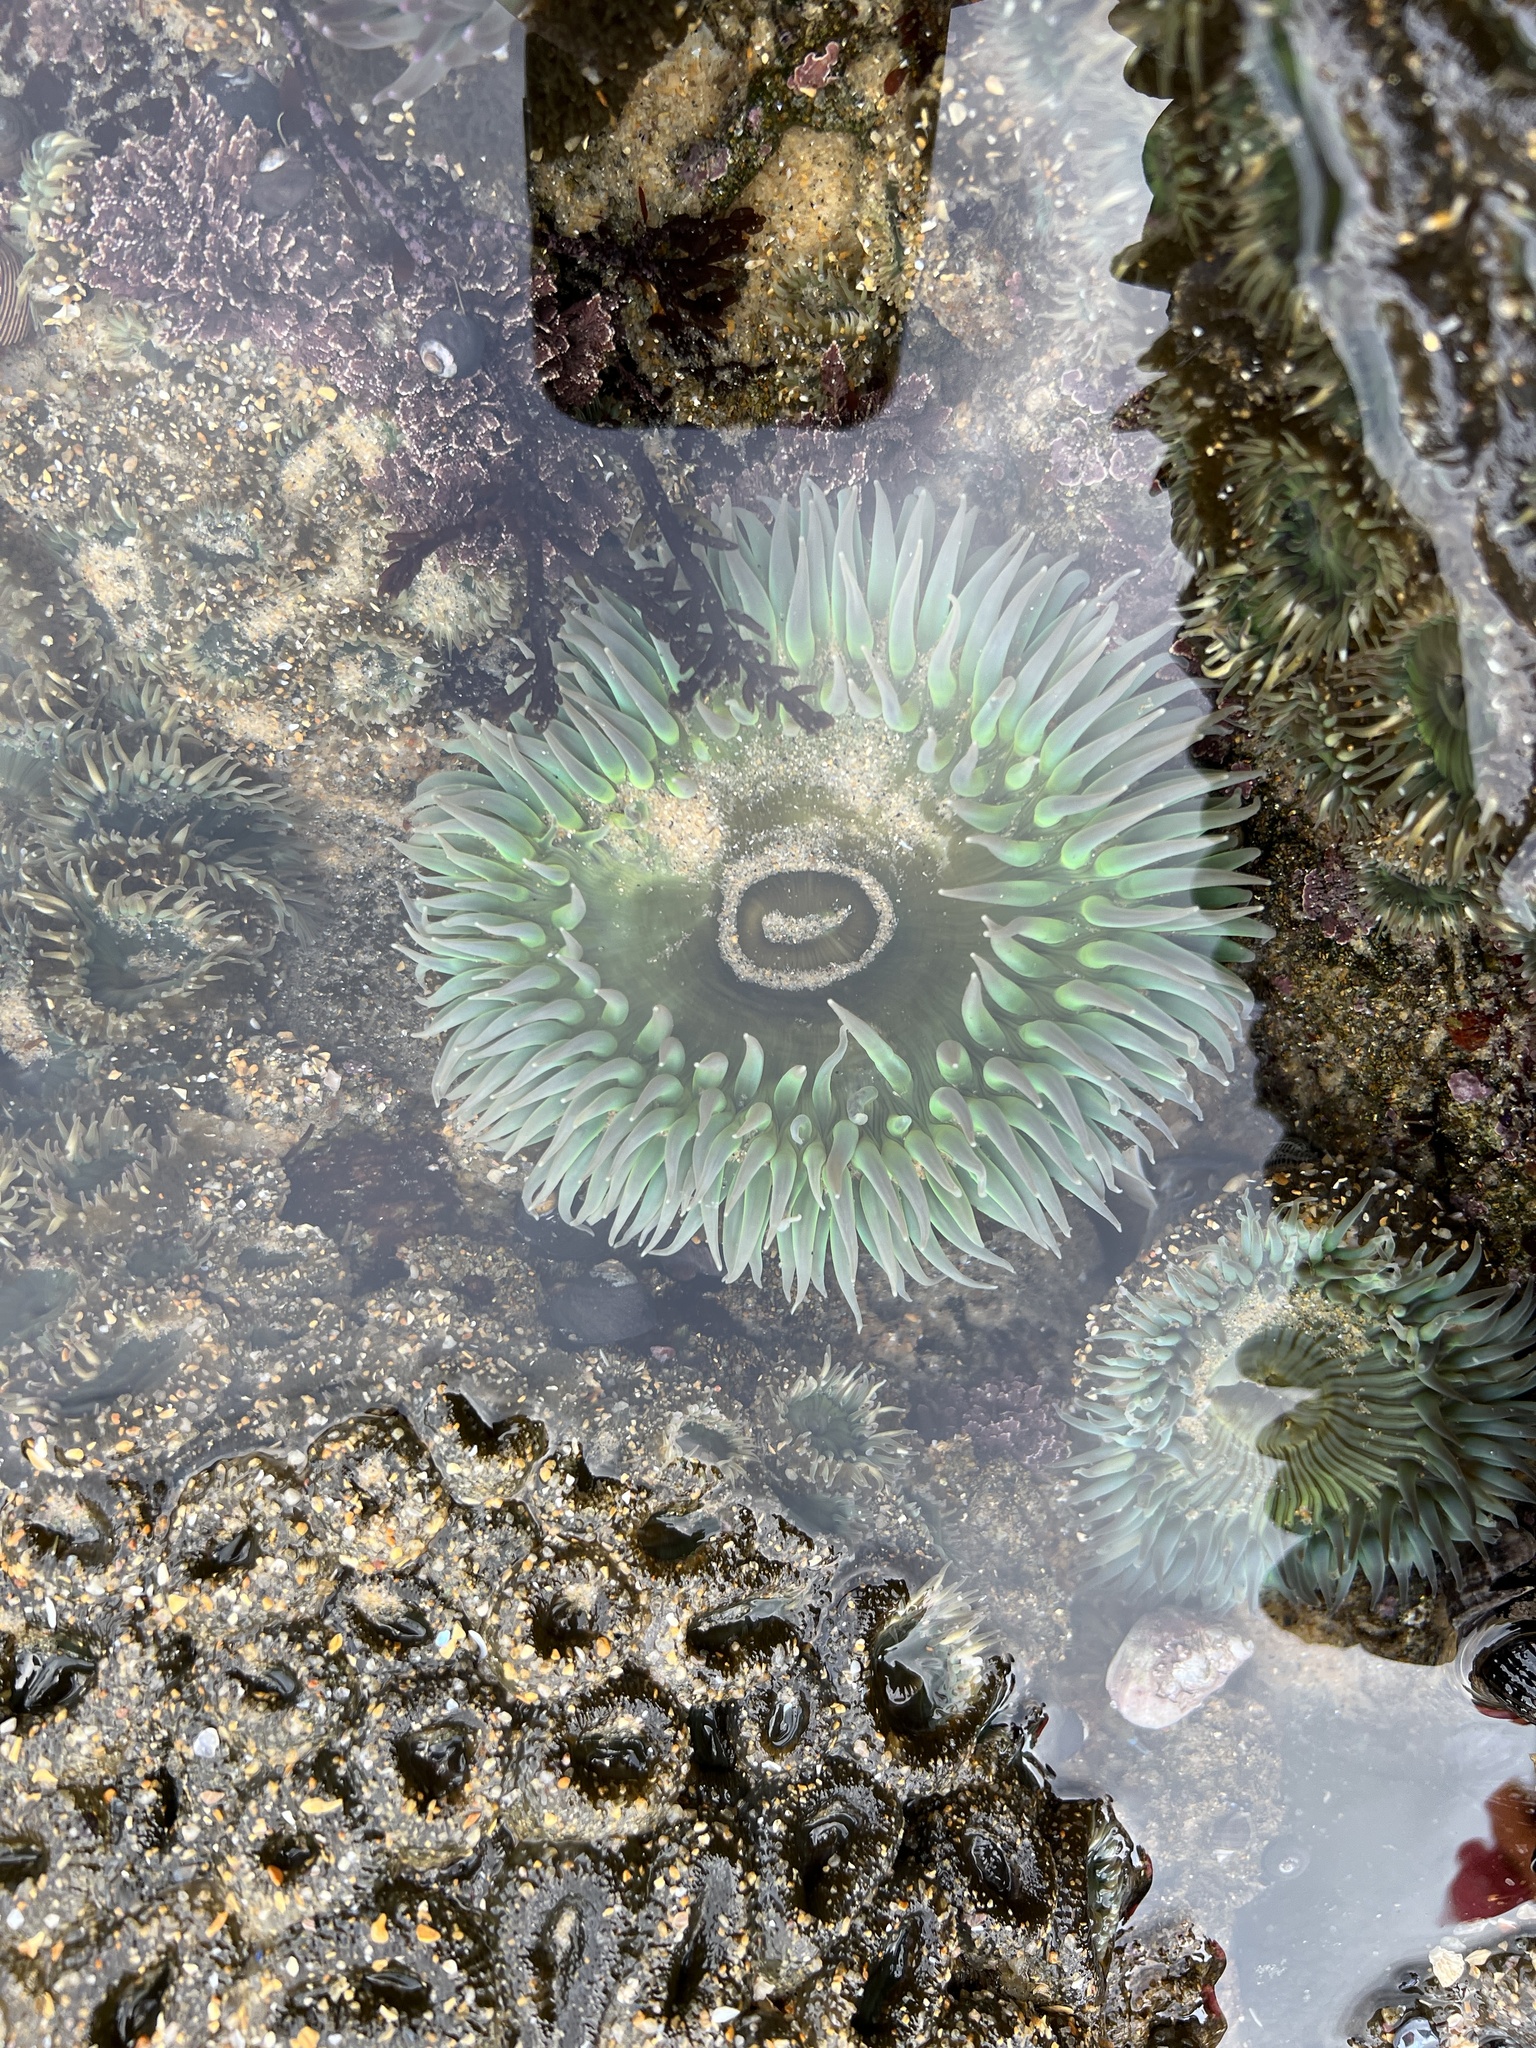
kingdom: Animalia
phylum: Cnidaria
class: Anthozoa
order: Actiniaria
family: Actiniidae
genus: Anthopleura
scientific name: Anthopleura xanthogrammica
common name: Giant green anemone
